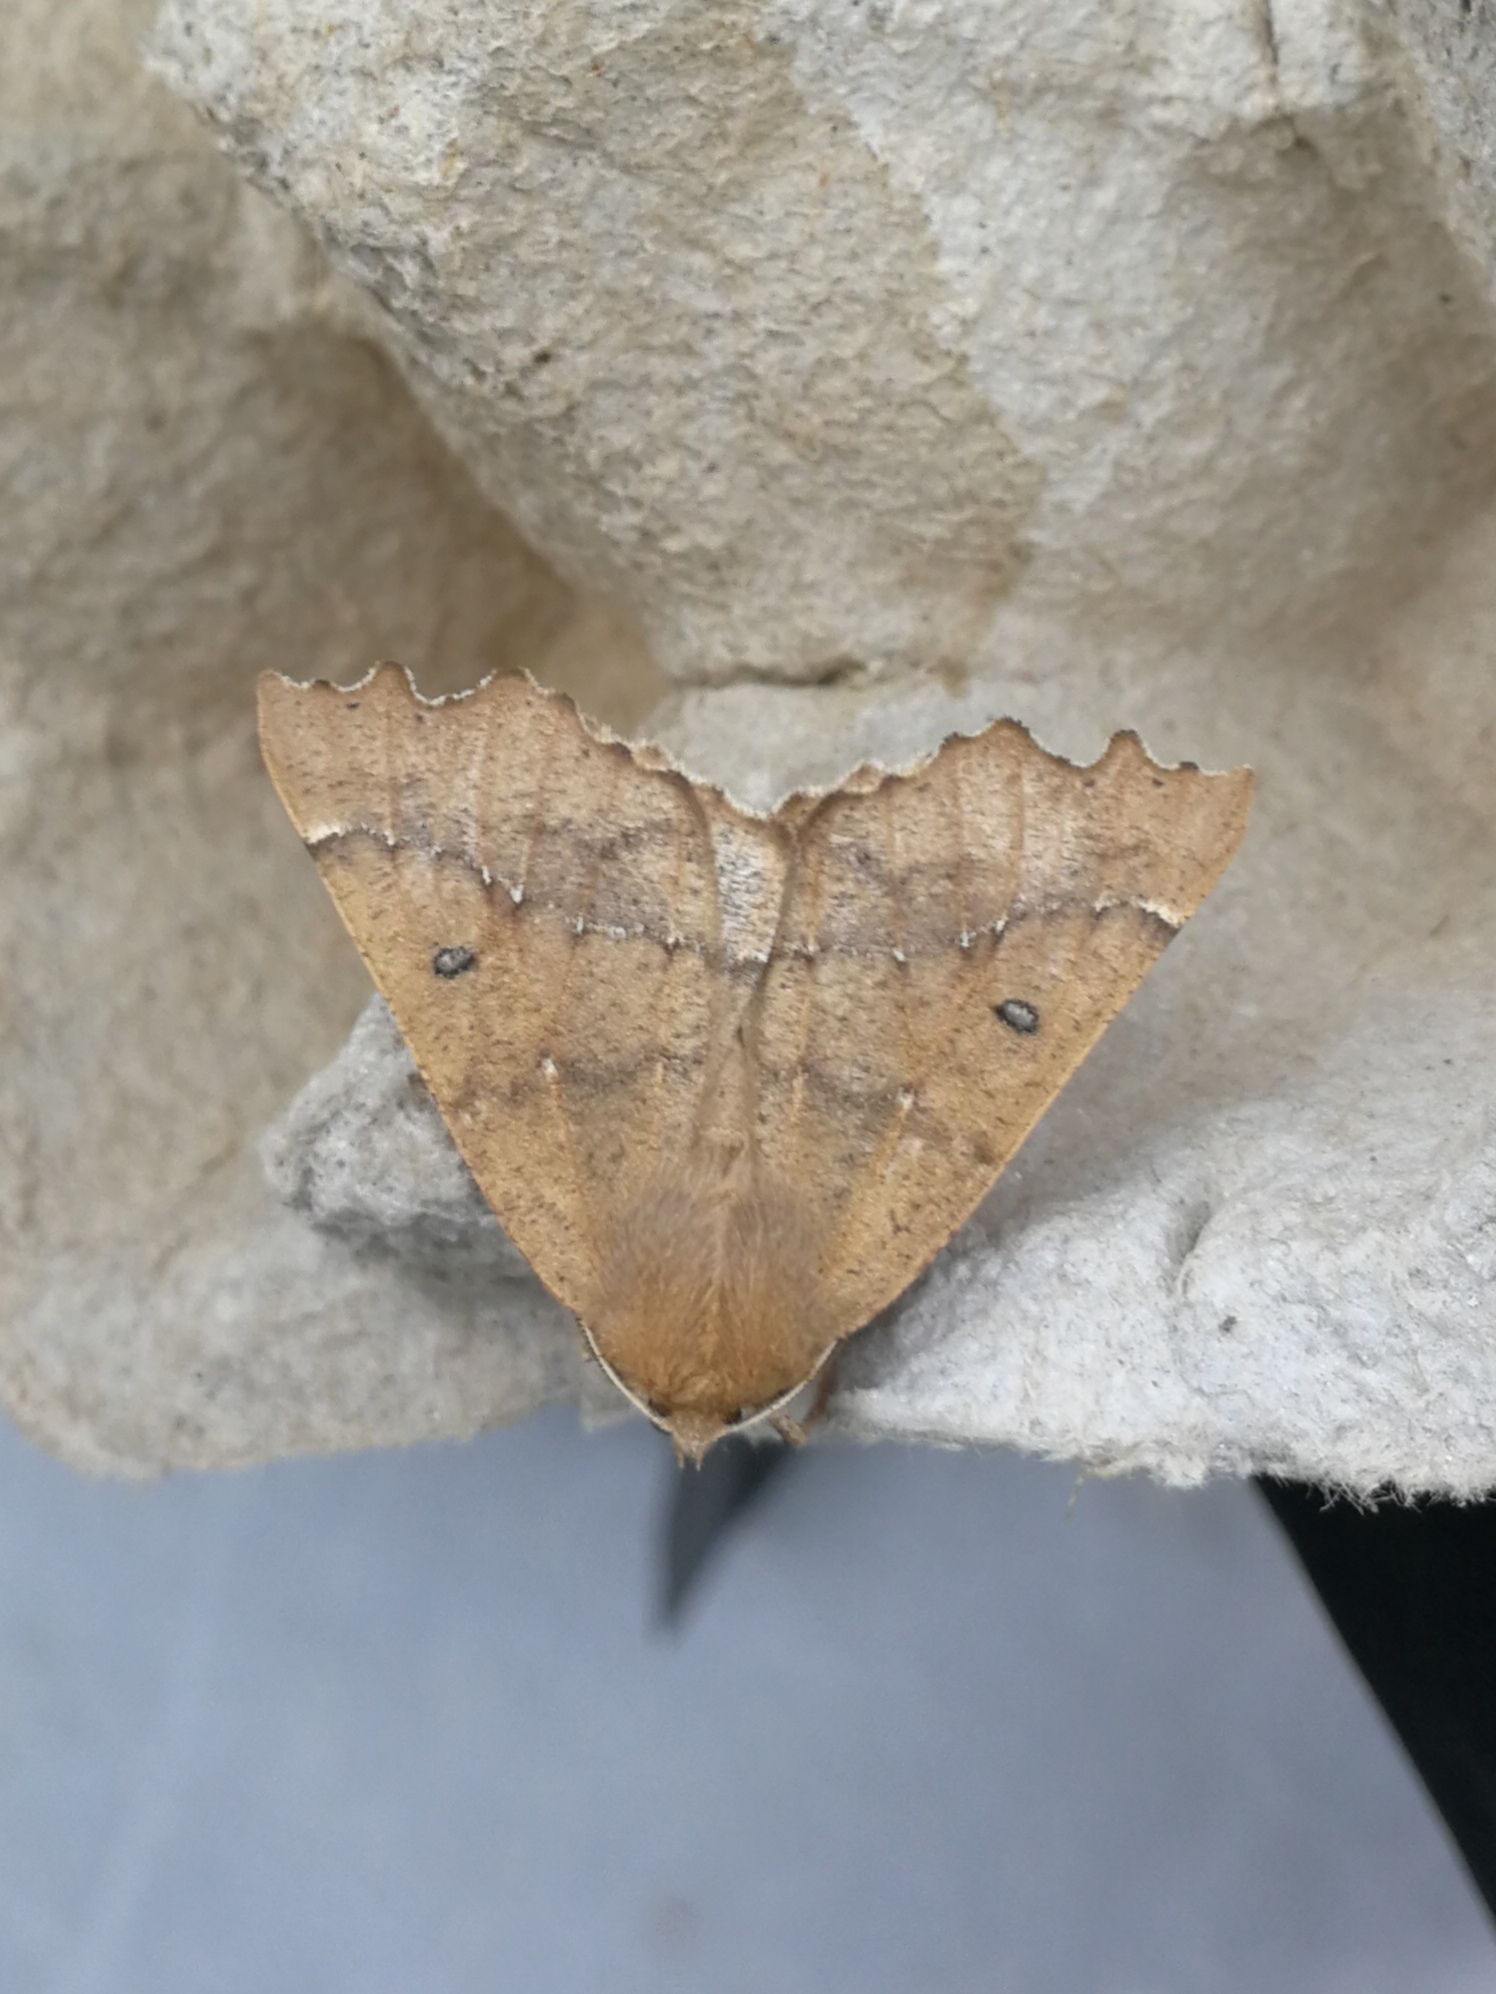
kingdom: Animalia
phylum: Arthropoda
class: Insecta
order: Lepidoptera
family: Geometridae
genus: Odontopera
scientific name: Odontopera bidentata
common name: Scalloped hazel
